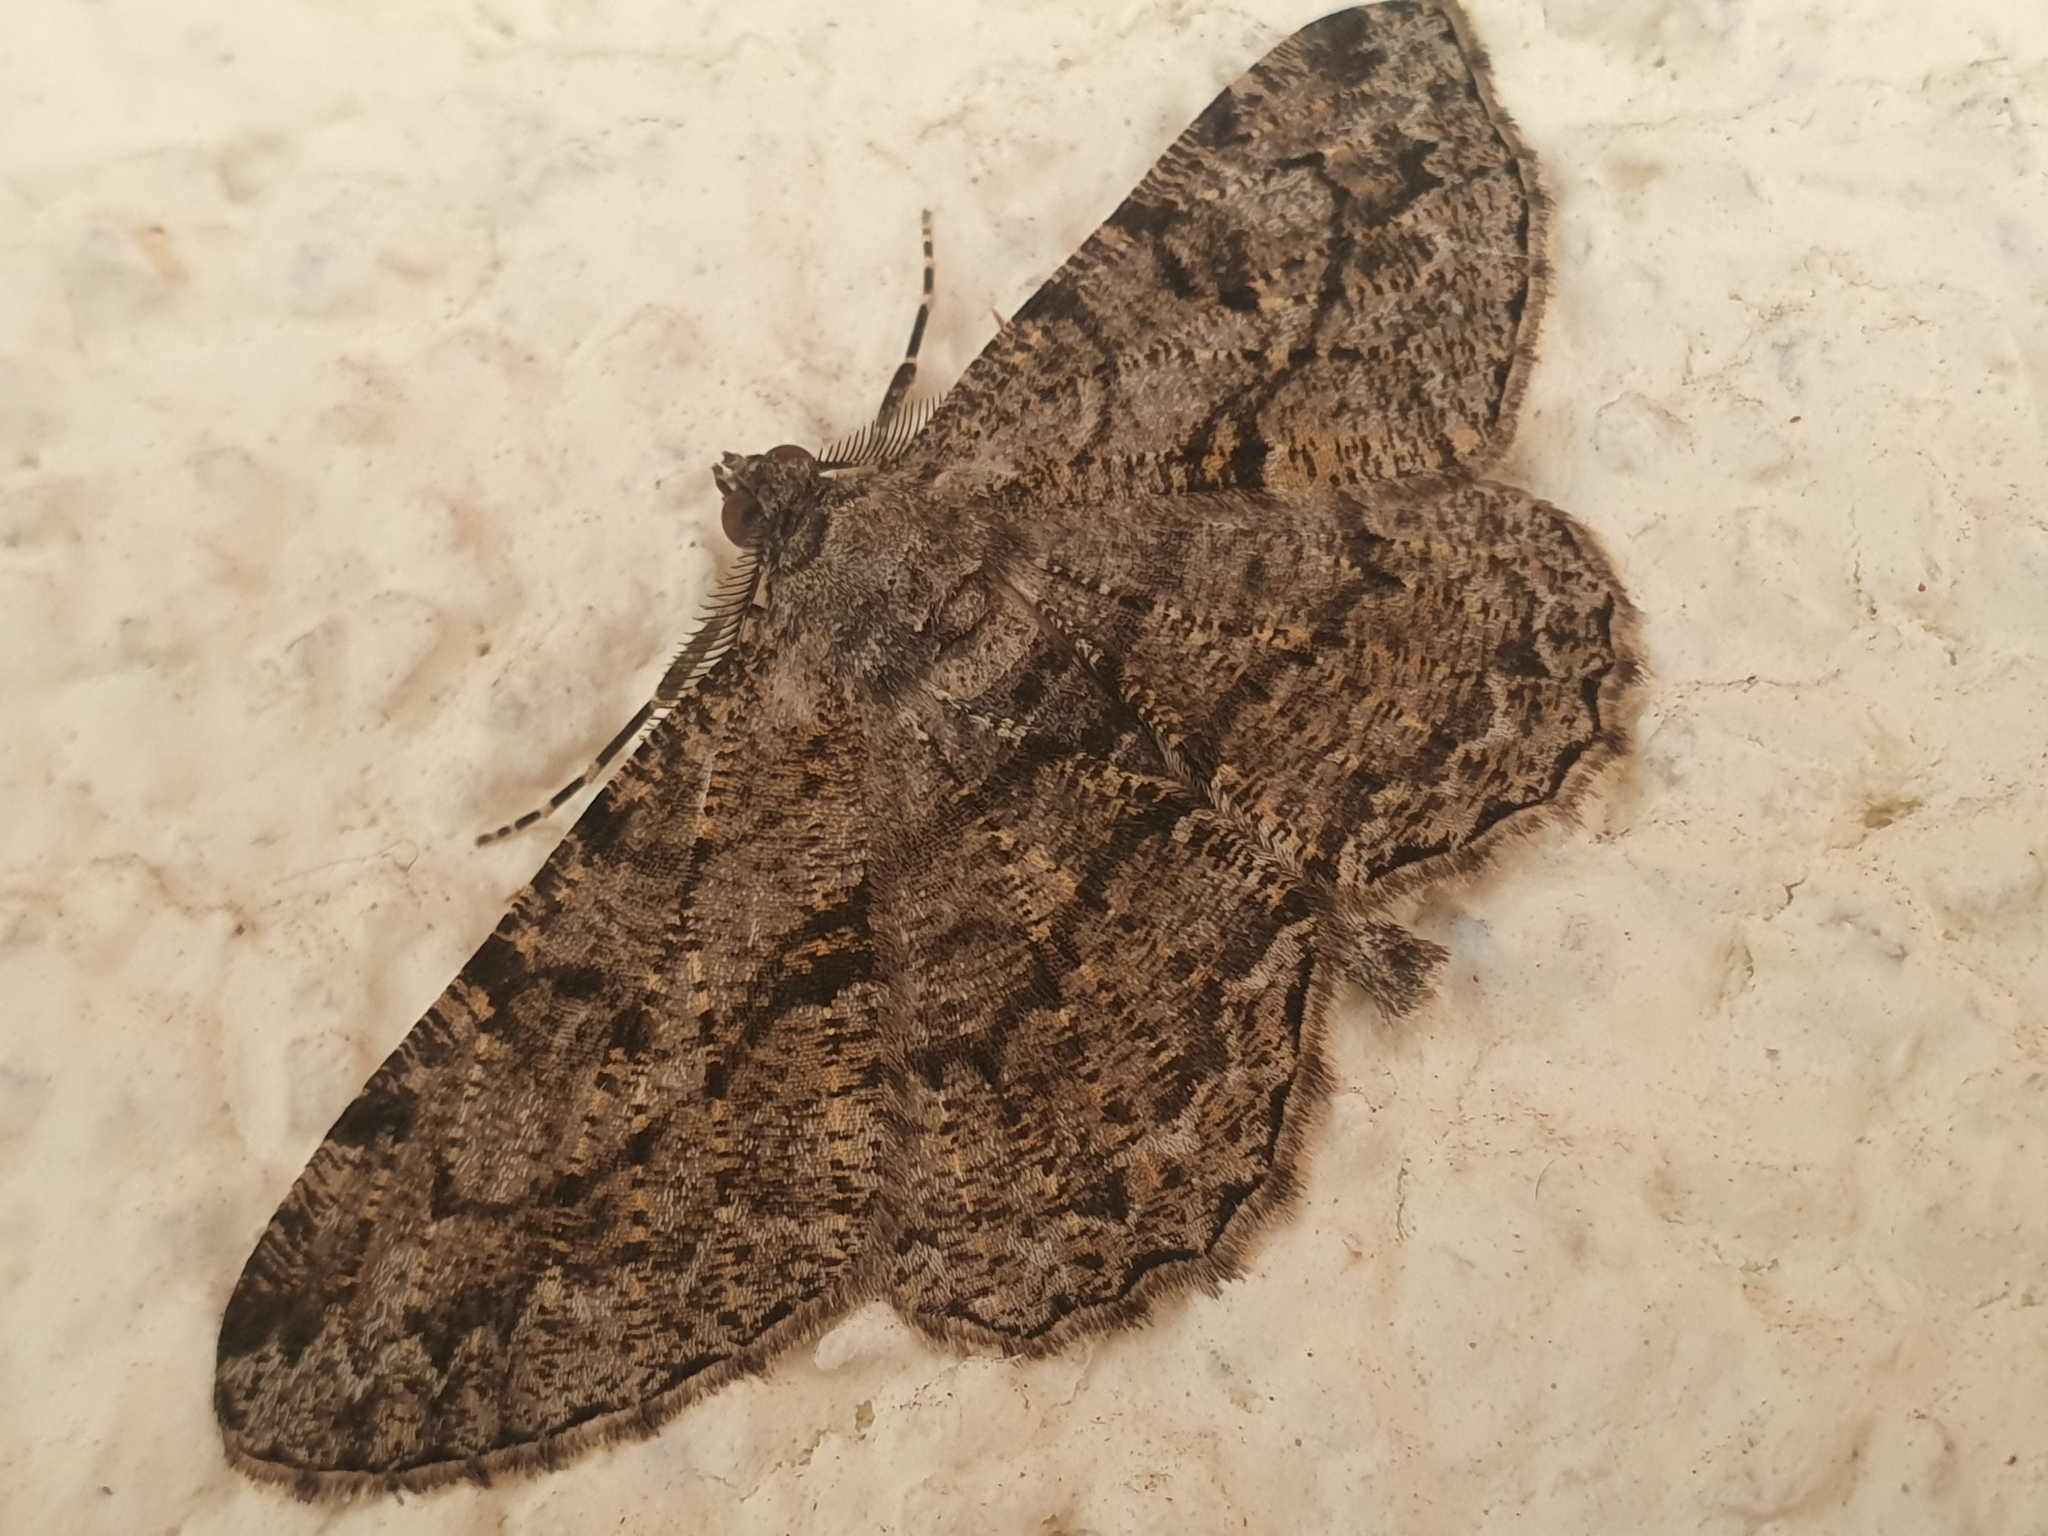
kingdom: Animalia
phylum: Arthropoda
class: Insecta
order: Lepidoptera
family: Geometridae
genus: Peribatodes
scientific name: Peribatodes rhomboidaria
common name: Willow beauty
